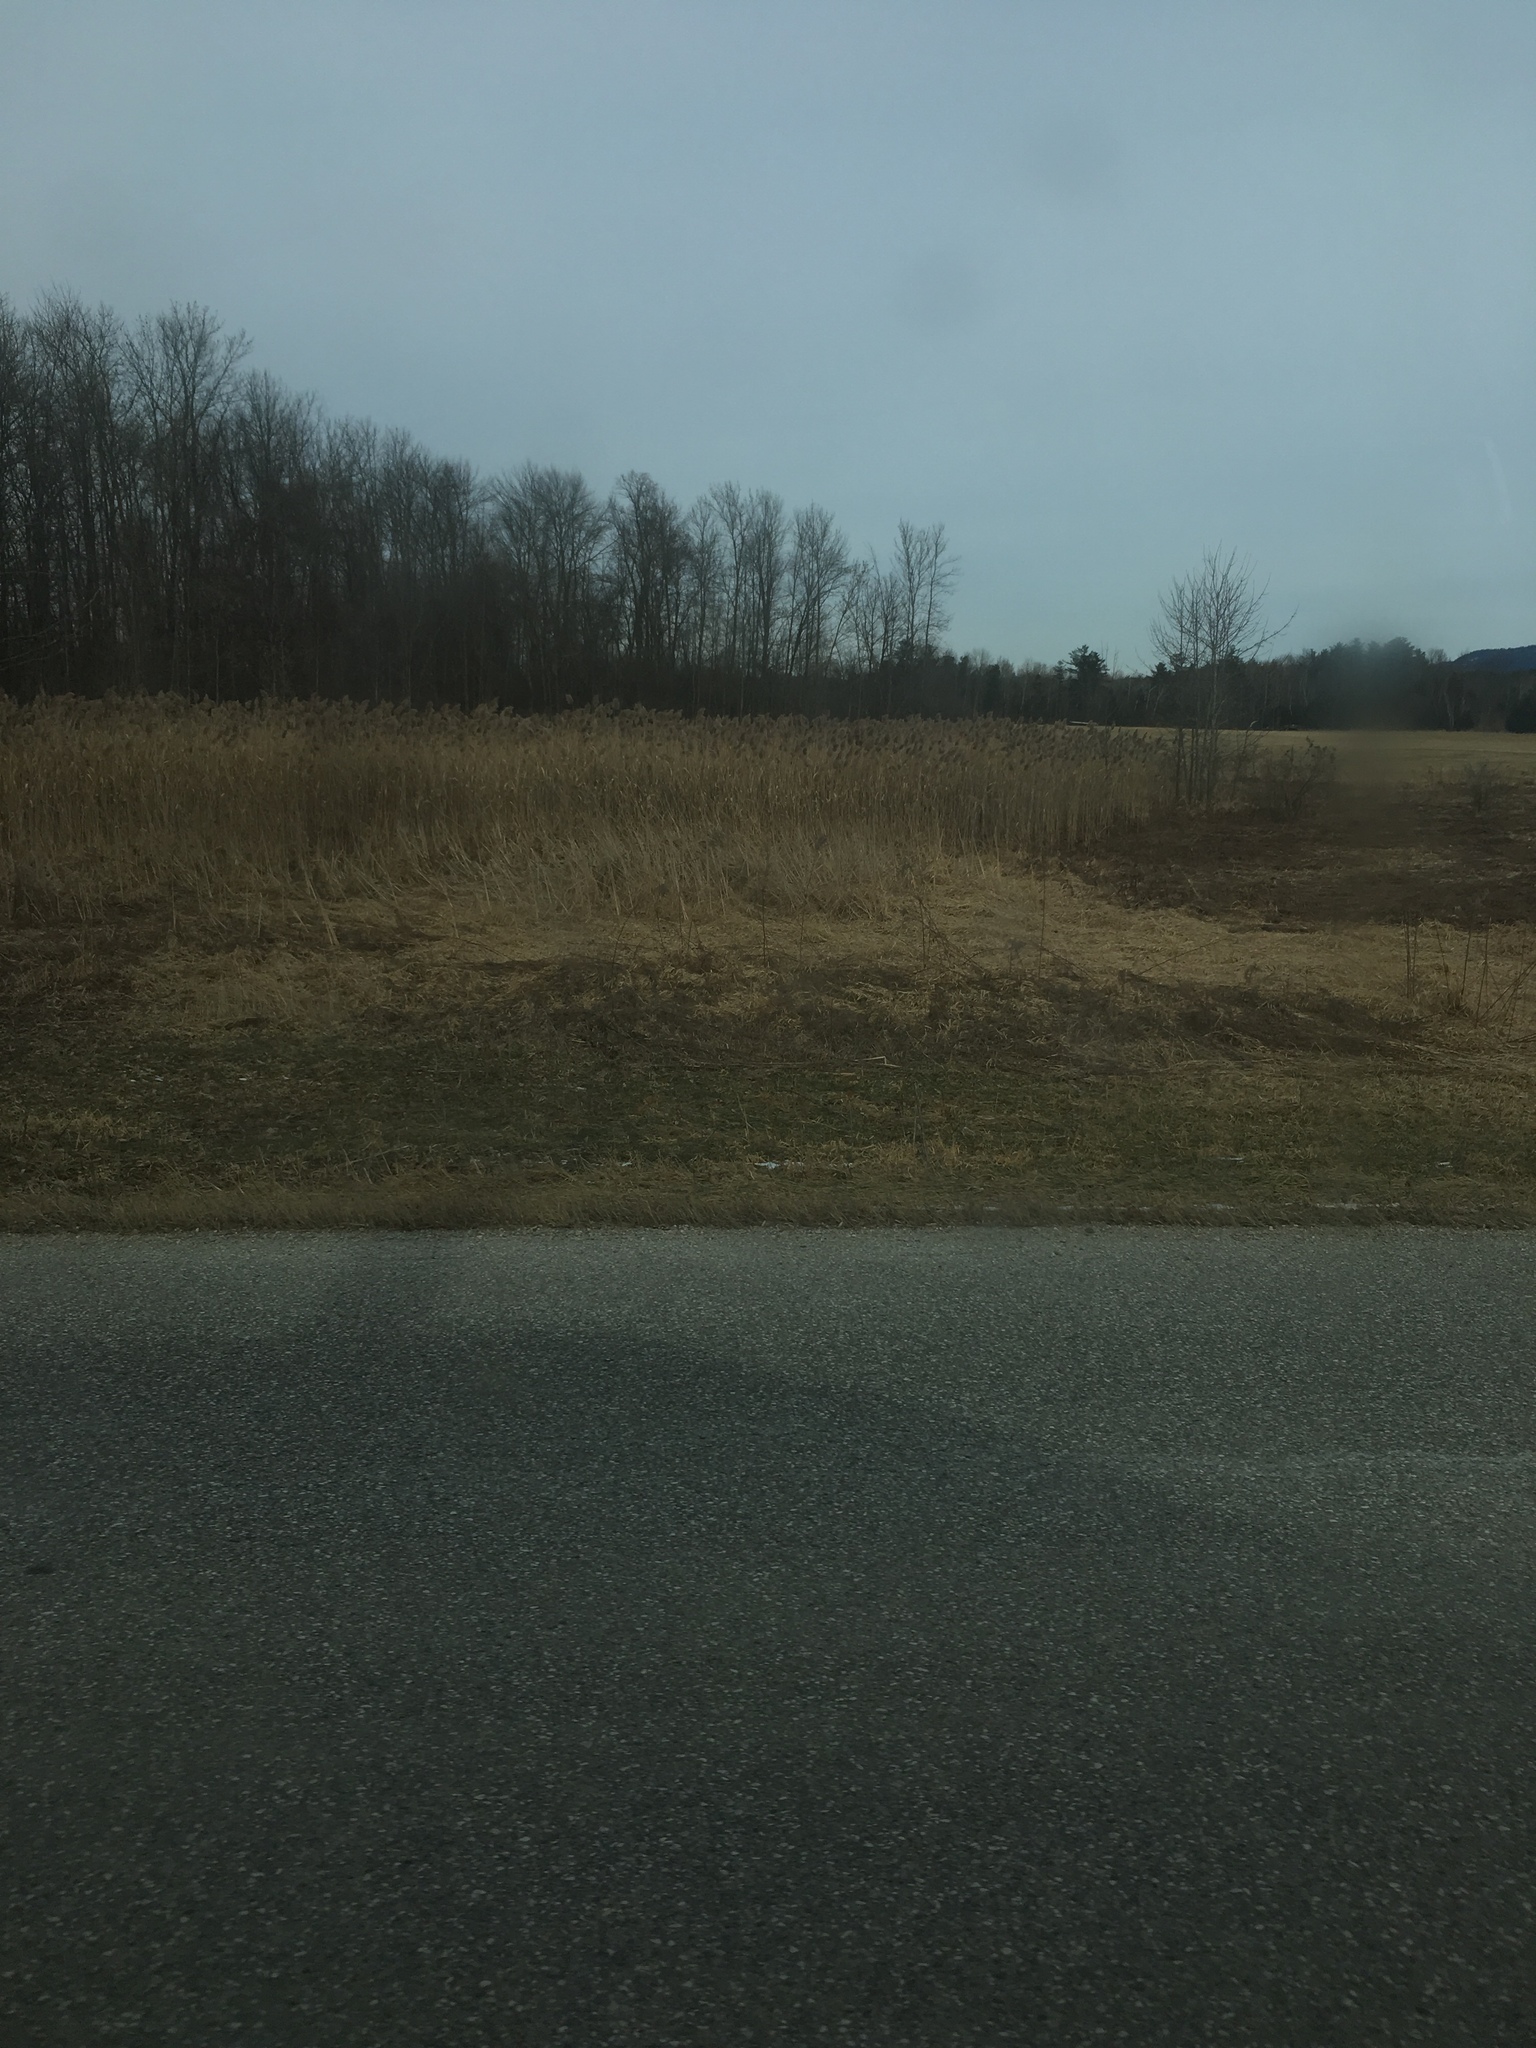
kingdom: Plantae
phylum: Tracheophyta
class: Liliopsida
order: Poales
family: Poaceae
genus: Phragmites
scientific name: Phragmites australis
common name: Common reed
